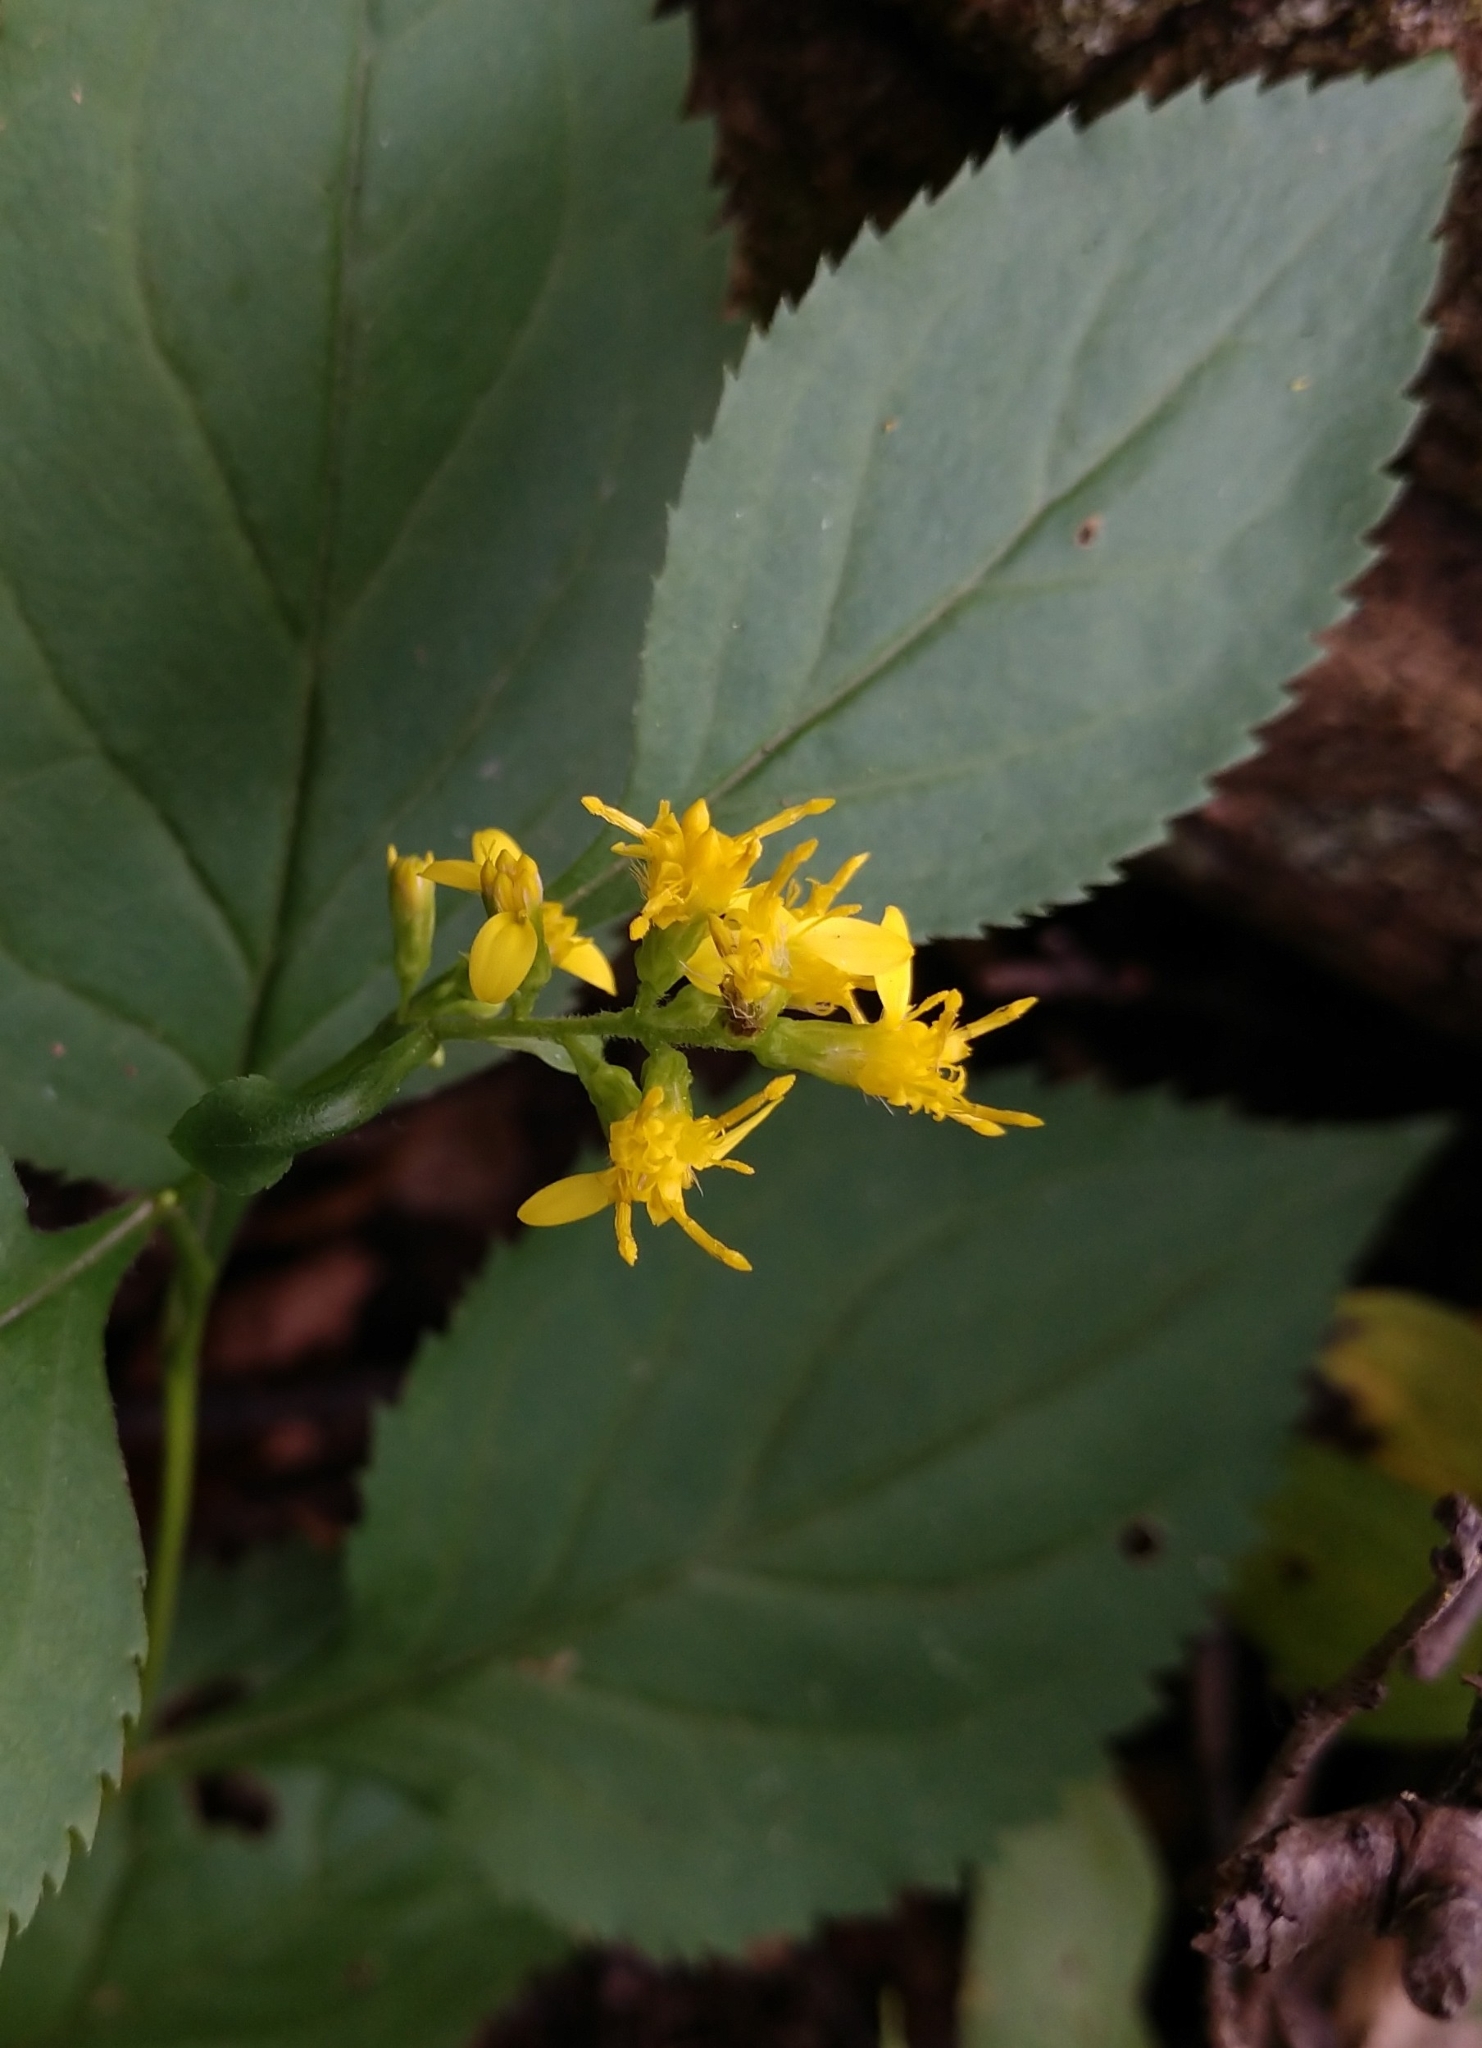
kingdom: Plantae
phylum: Tracheophyta
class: Magnoliopsida
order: Asterales
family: Asteraceae
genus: Solidago
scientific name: Solidago flexicaulis
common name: Zig-zag goldenrod
